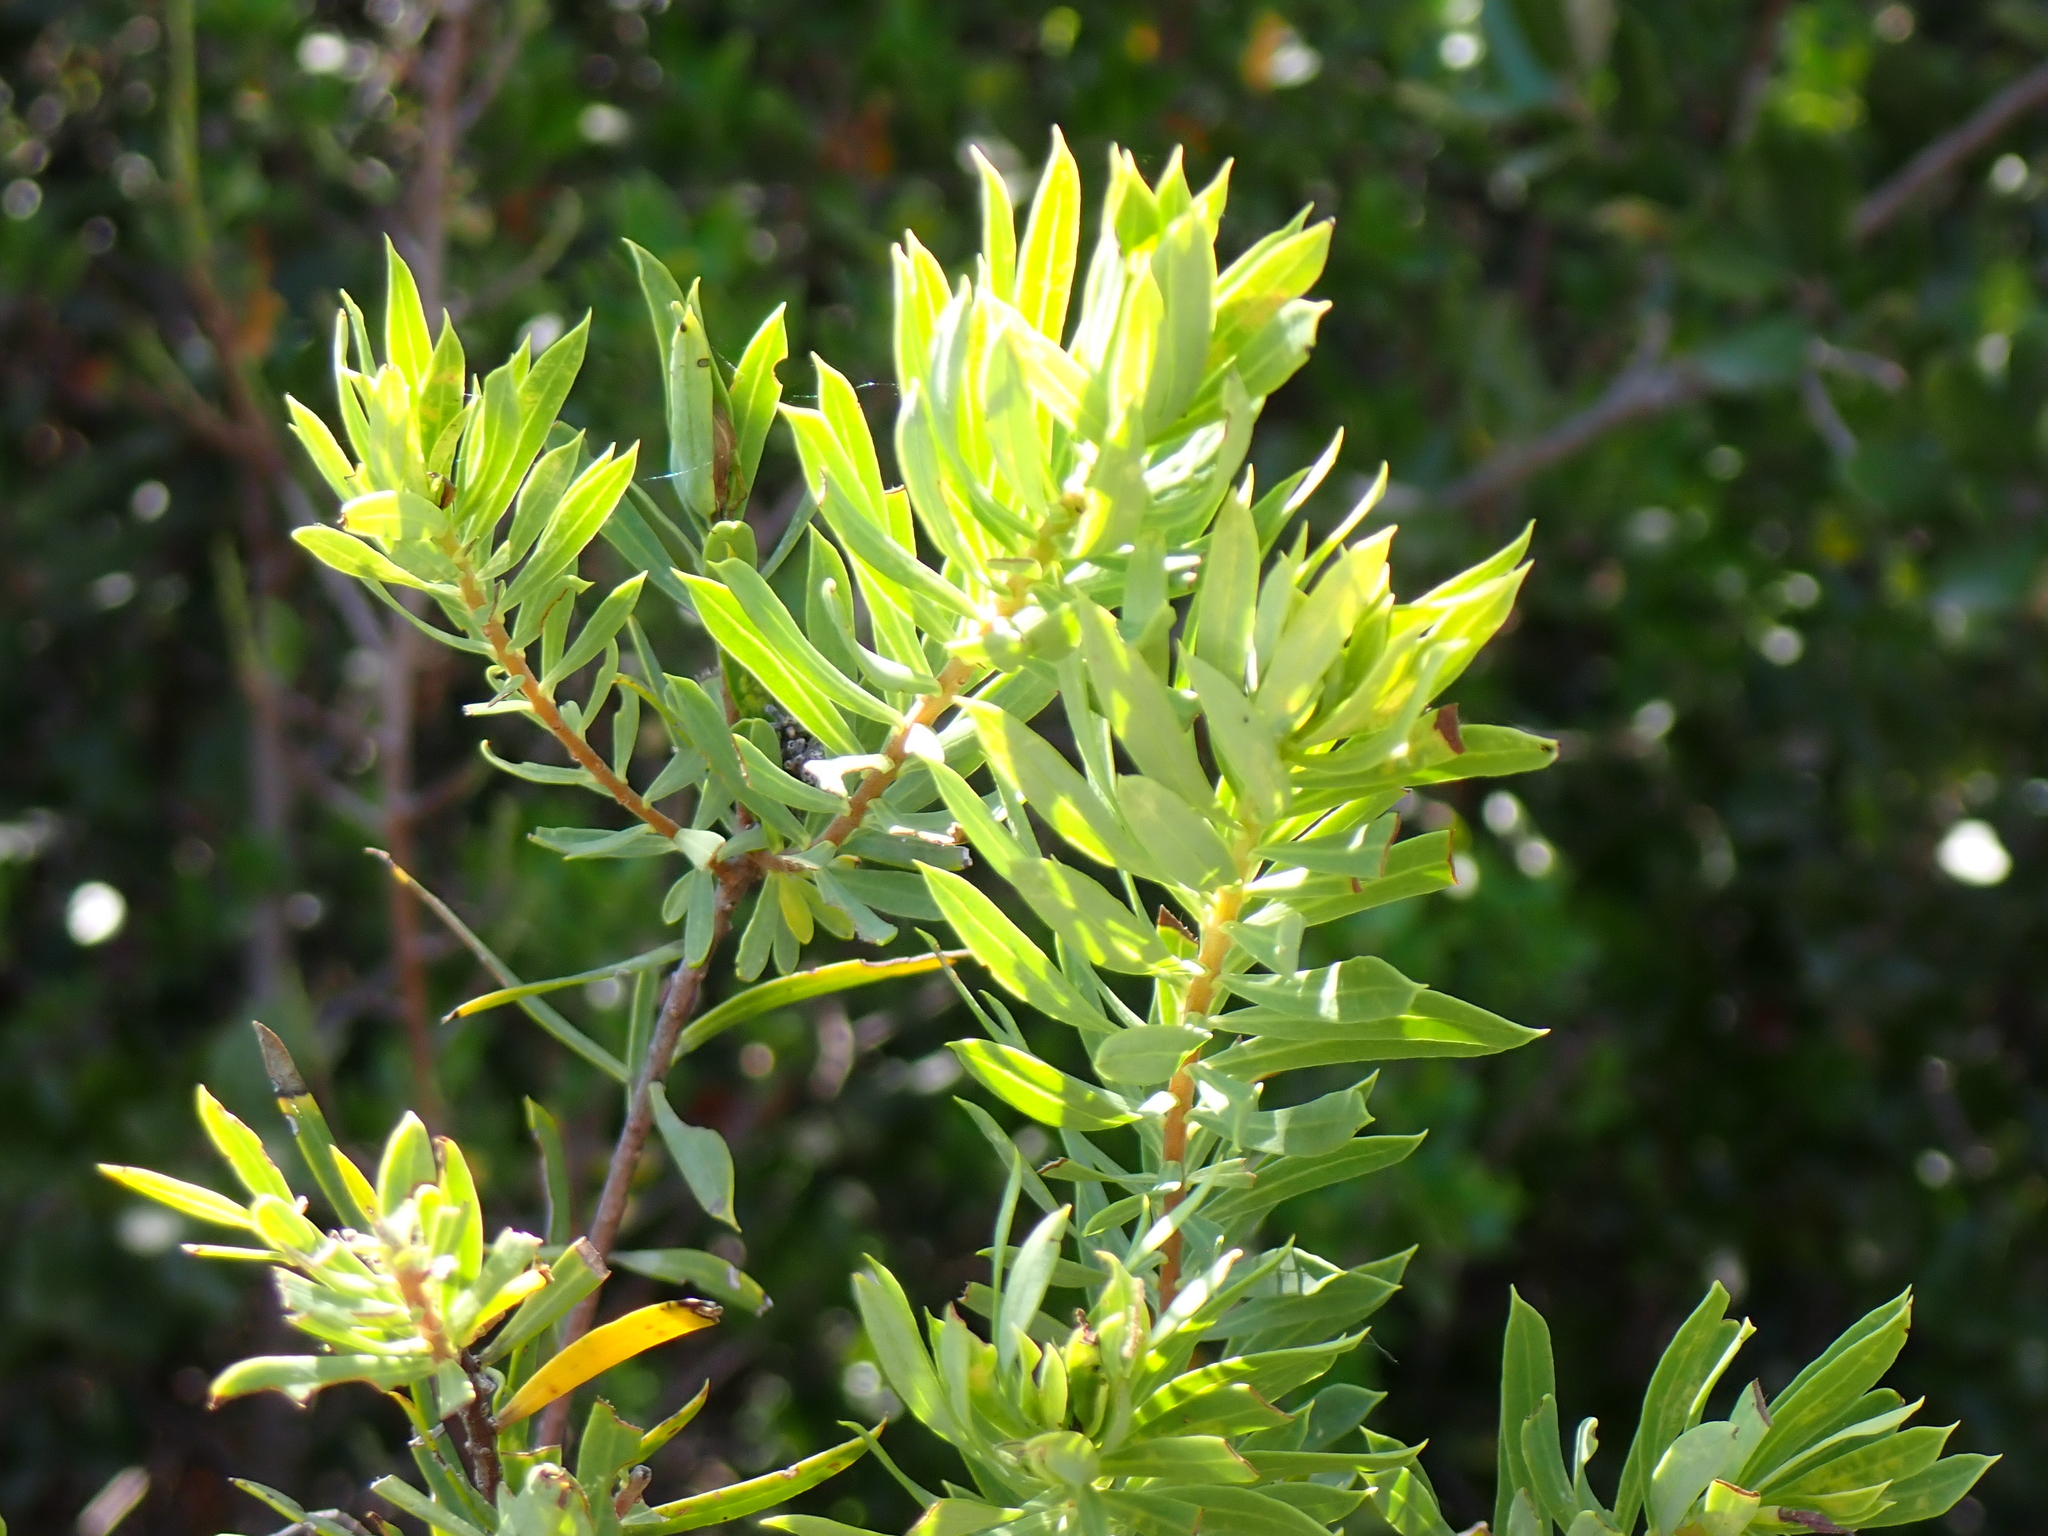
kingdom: Plantae
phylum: Tracheophyta
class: Magnoliopsida
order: Malvales
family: Thymelaeaceae
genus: Daphne
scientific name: Daphne gnidium
